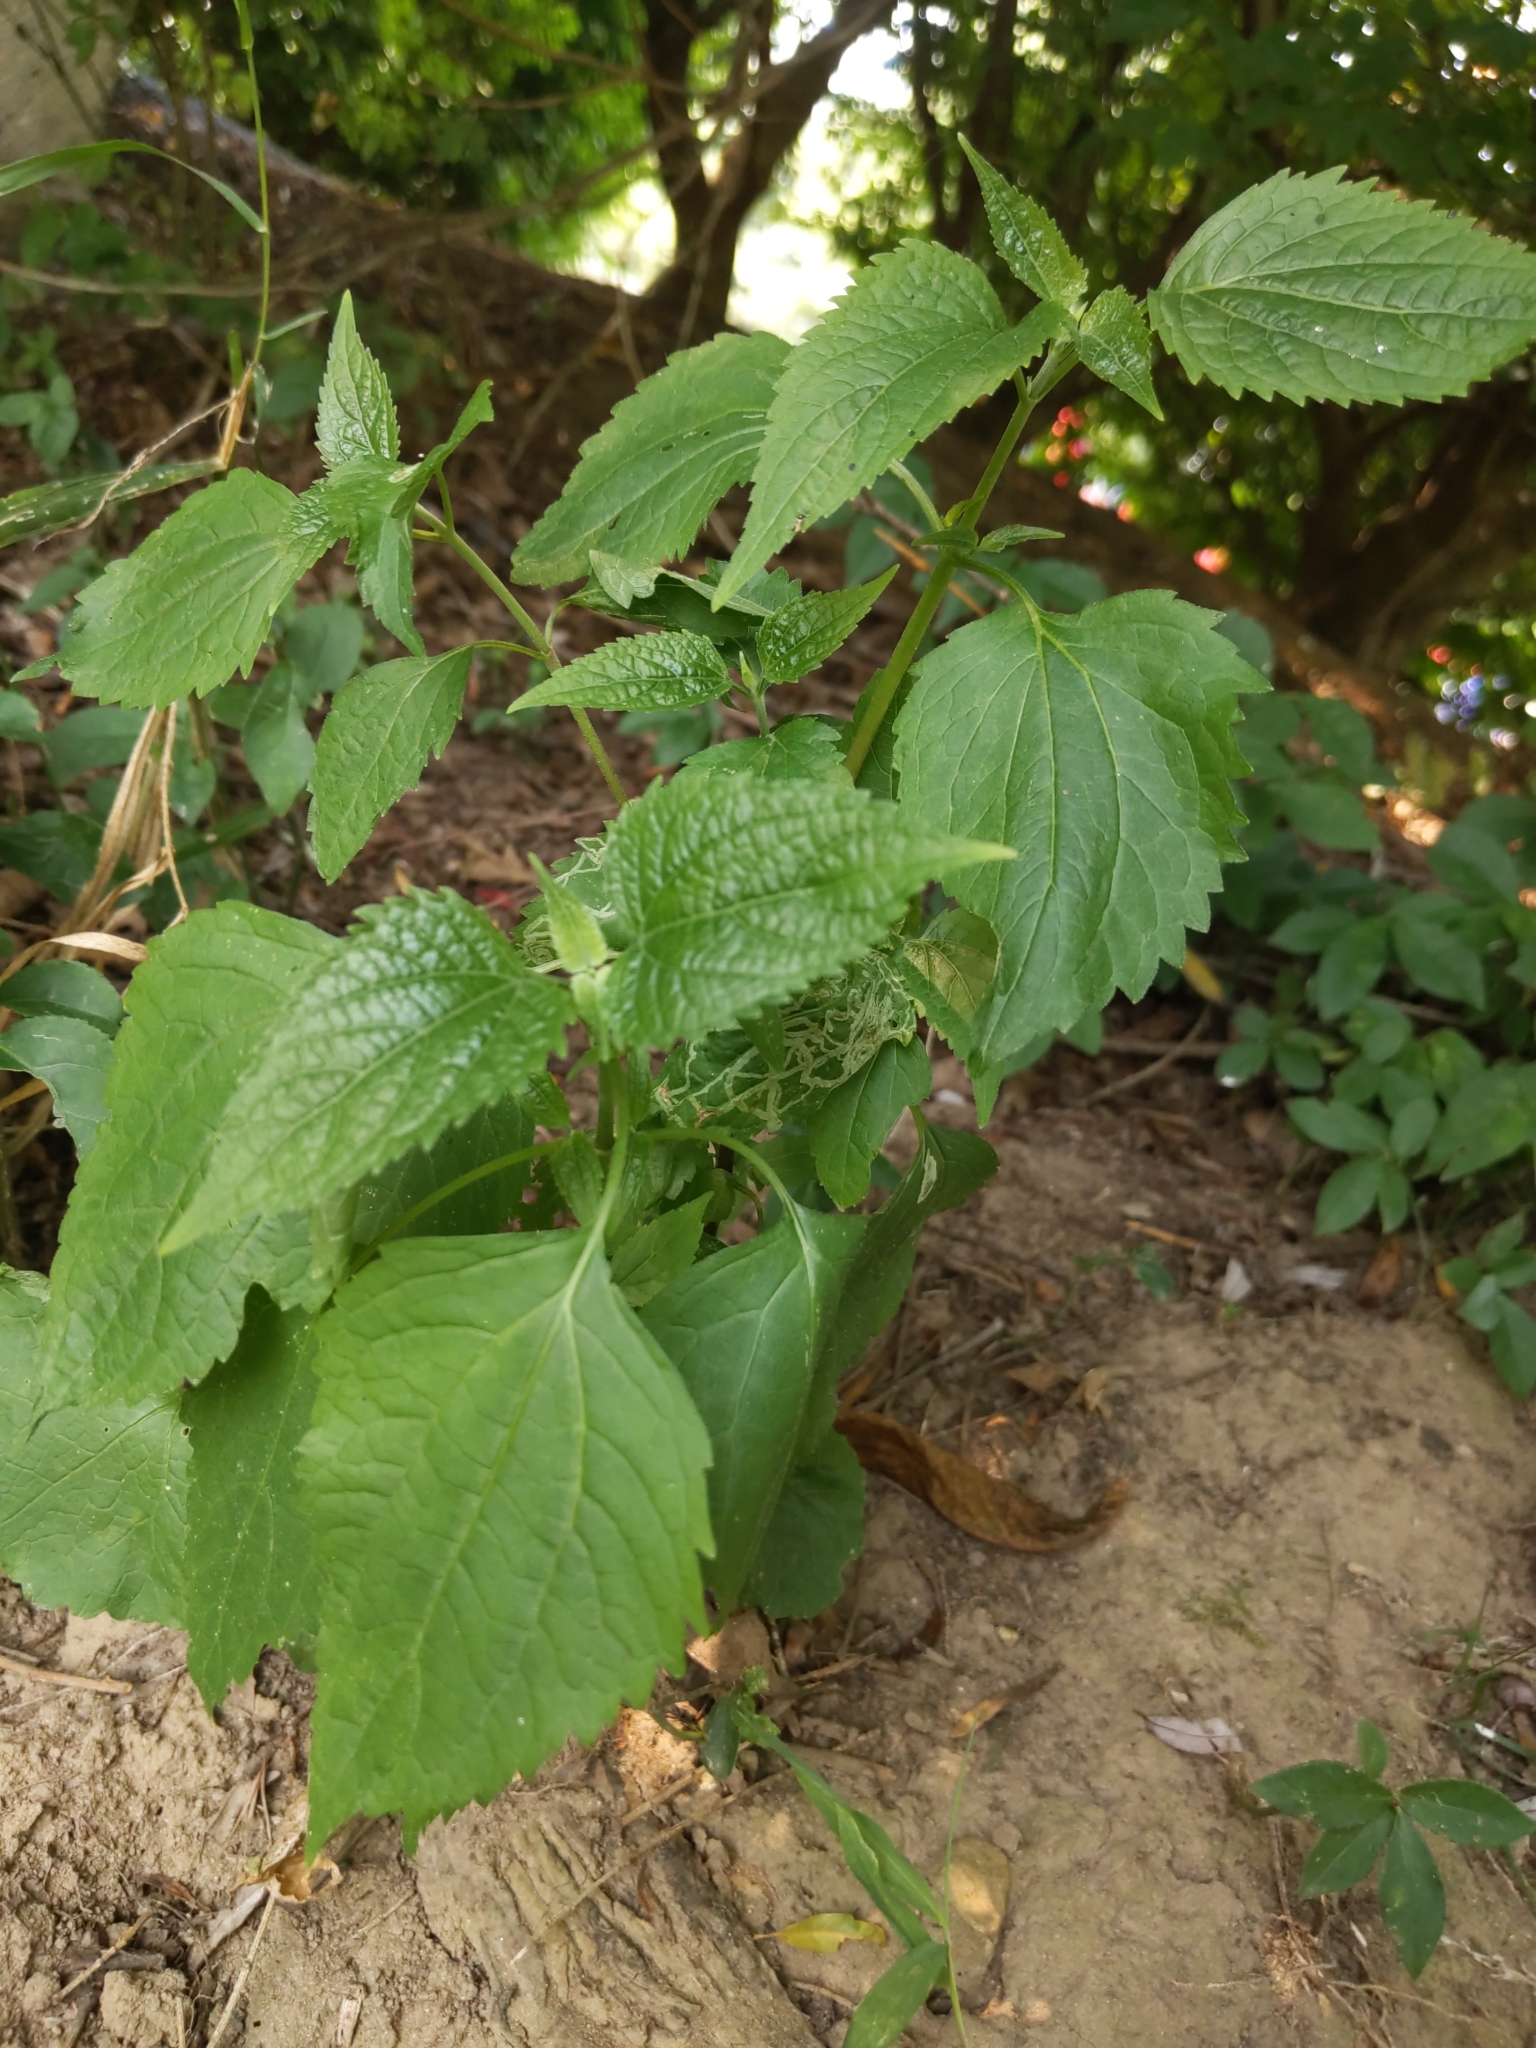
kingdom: Plantae
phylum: Tracheophyta
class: Magnoliopsida
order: Asterales
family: Asteraceae
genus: Ageratina
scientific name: Ageratina altissima
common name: White snakeroot
